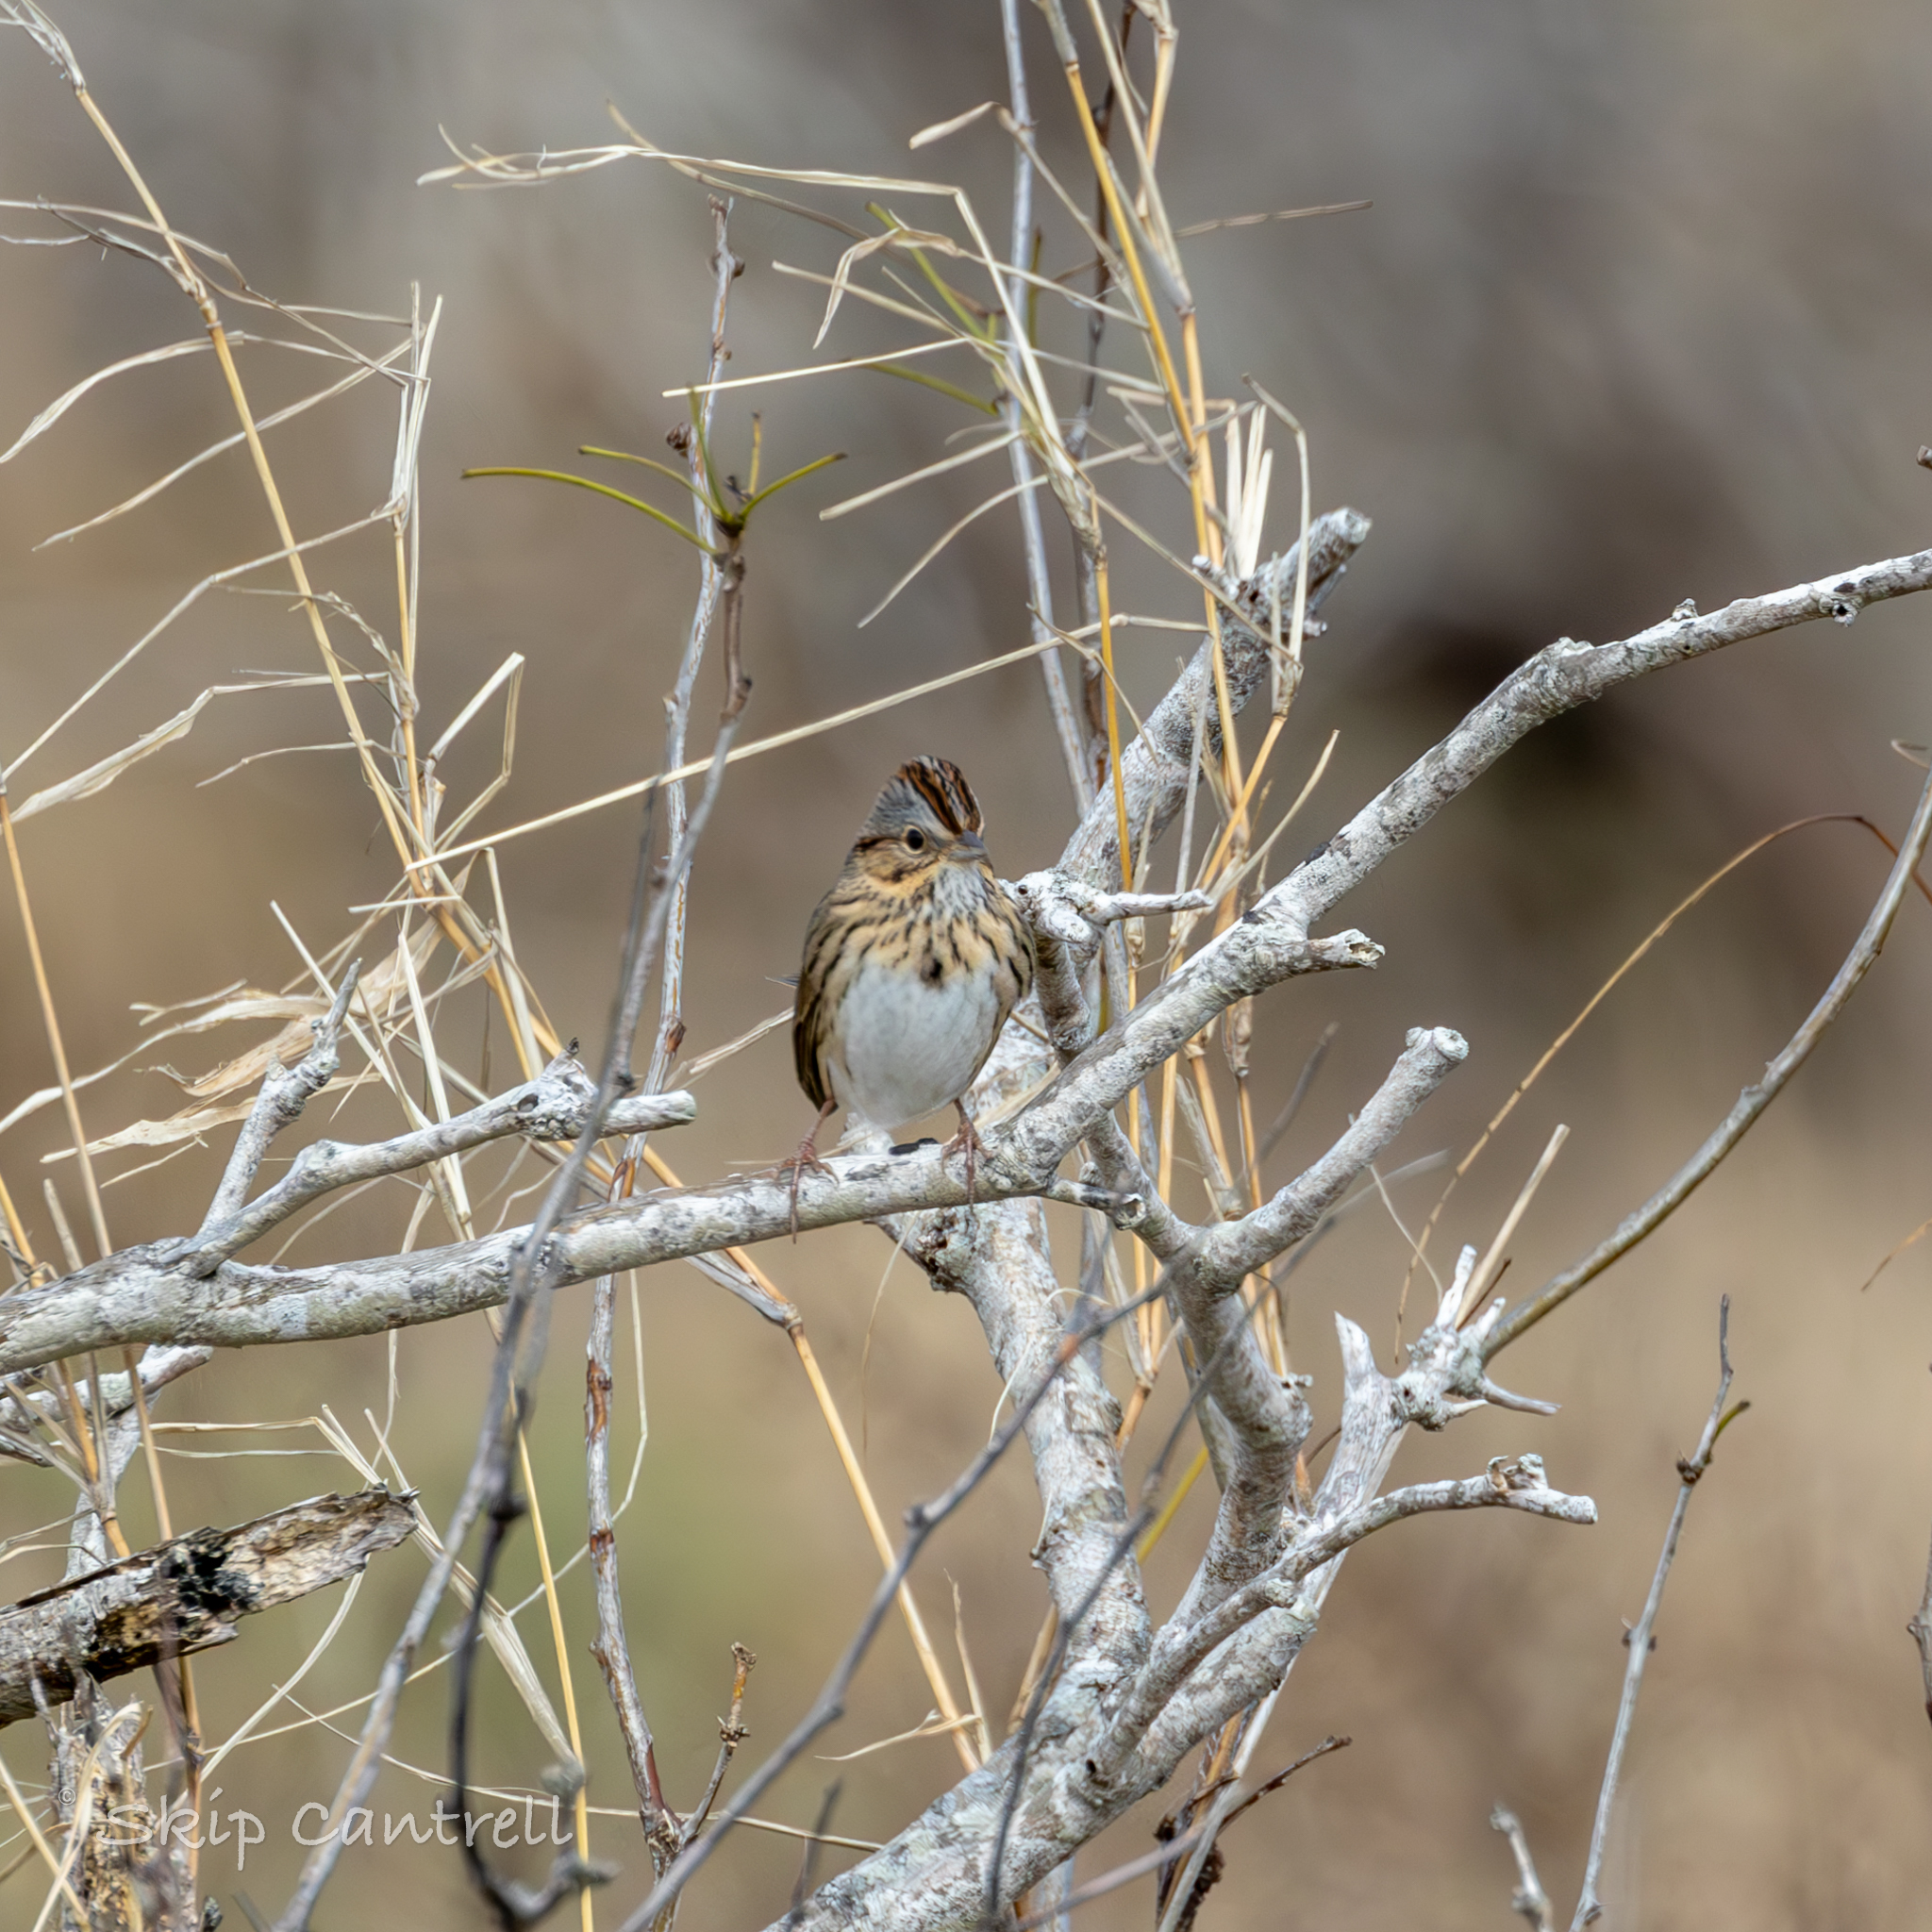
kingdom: Animalia
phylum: Chordata
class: Aves
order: Passeriformes
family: Passerellidae
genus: Melospiza
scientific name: Melospiza lincolnii
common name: Lincoln's sparrow
